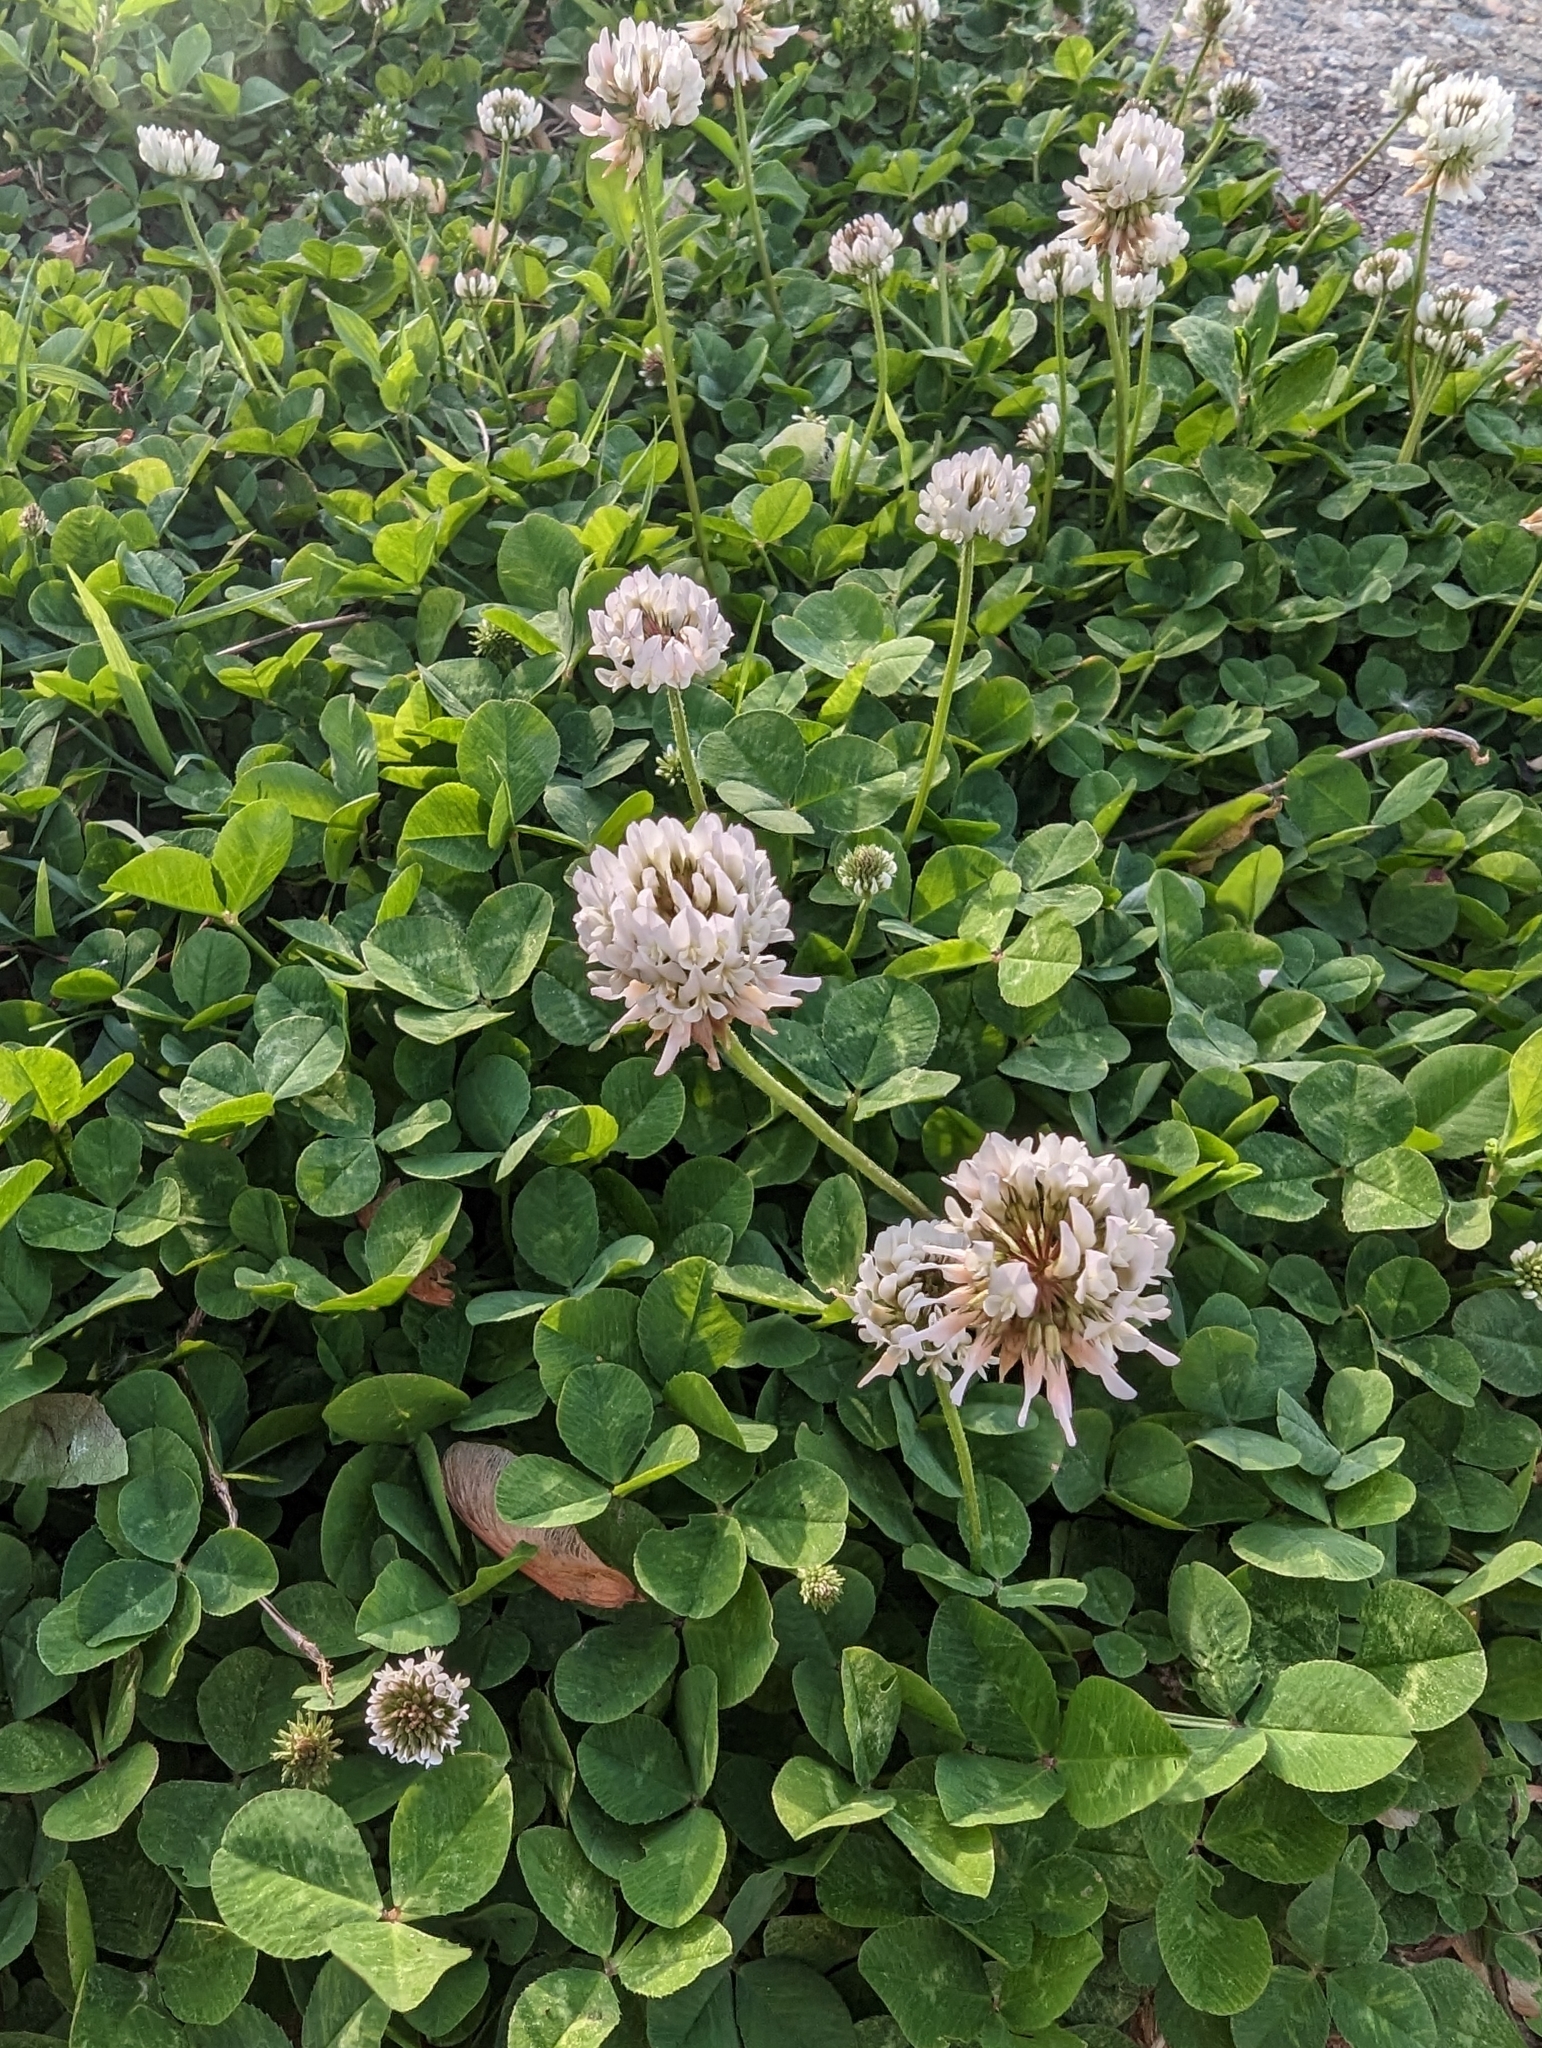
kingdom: Plantae
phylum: Tracheophyta
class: Magnoliopsida
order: Fabales
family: Fabaceae
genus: Trifolium
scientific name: Trifolium repens
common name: White clover
